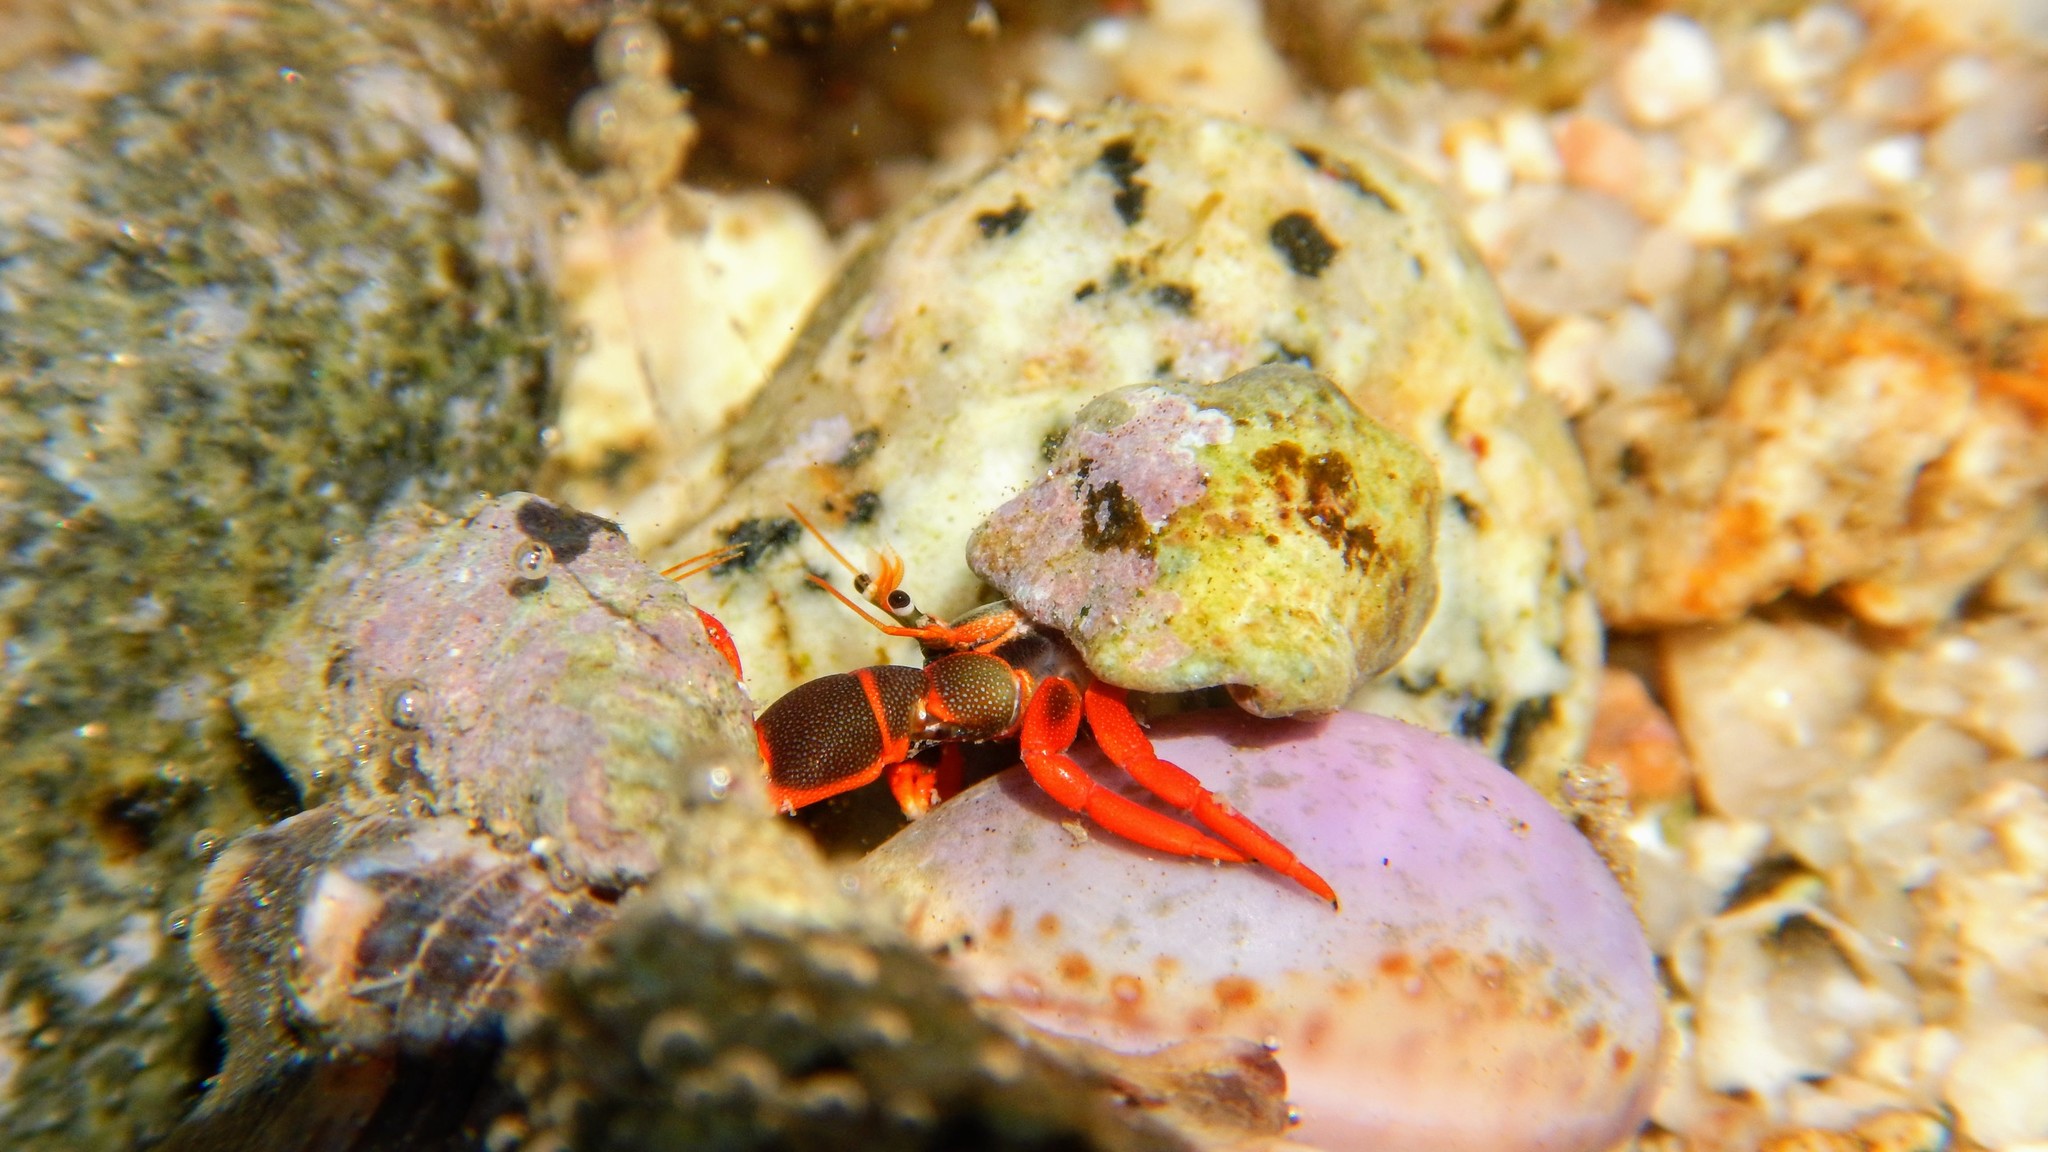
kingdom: Animalia
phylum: Arthropoda
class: Malacostraca
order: Decapoda
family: Diogenidae
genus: Calcinus
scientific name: Calcinus californiensis
